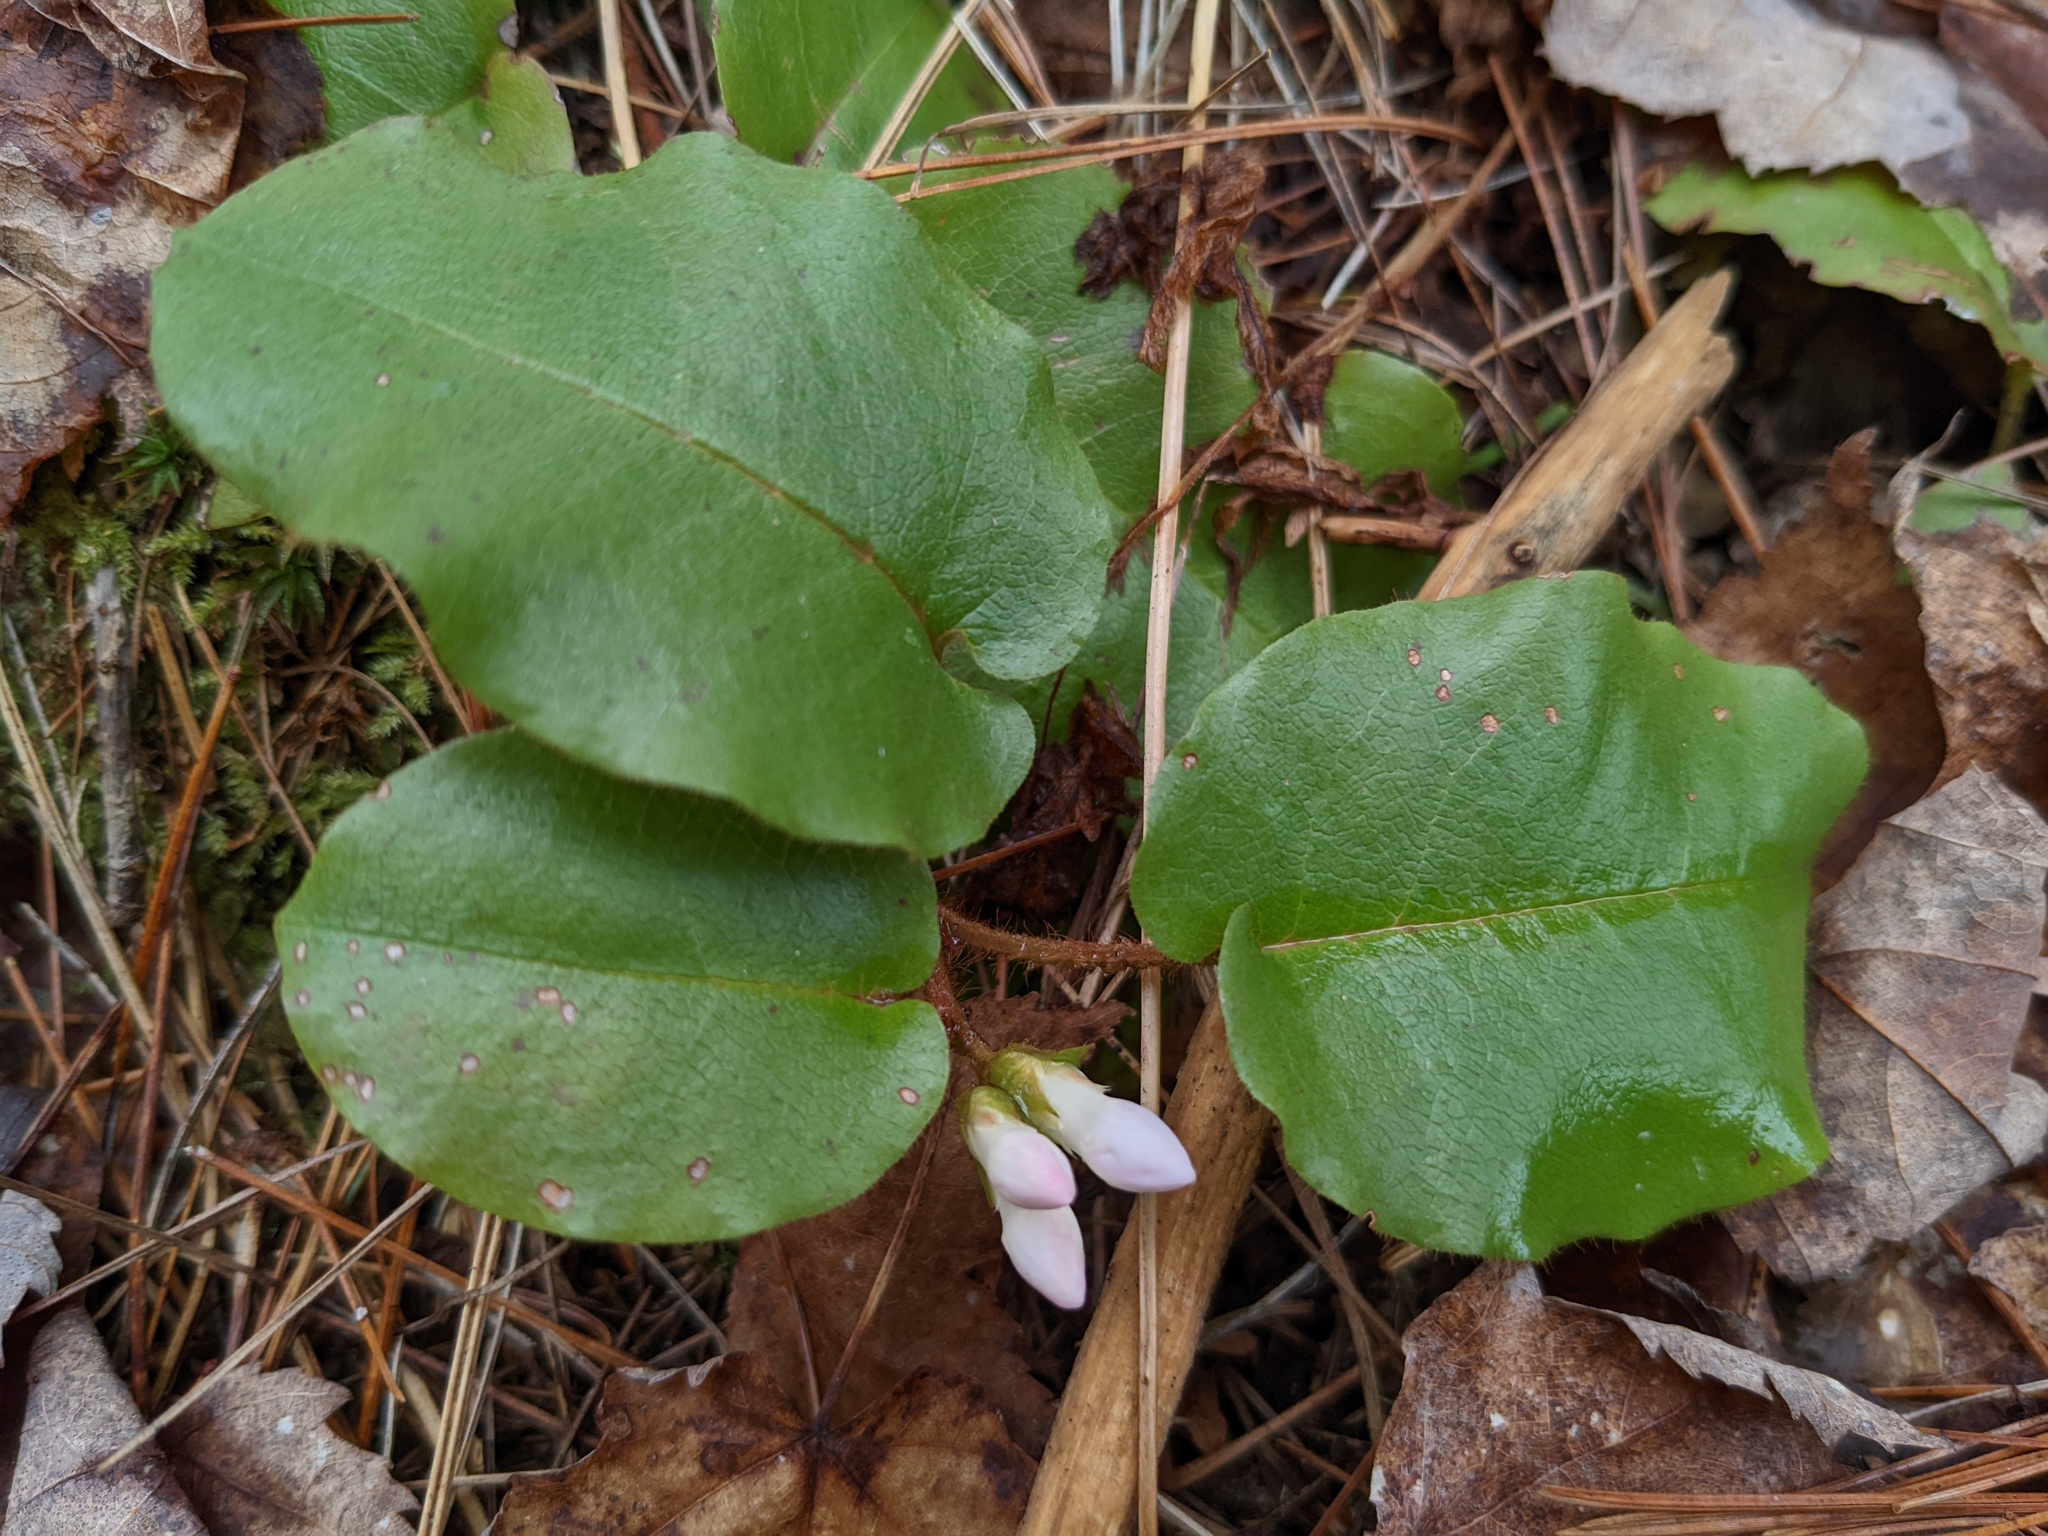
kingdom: Plantae
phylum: Tracheophyta
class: Magnoliopsida
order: Ericales
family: Ericaceae
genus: Epigaea
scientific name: Epigaea repens
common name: Gravelroot
